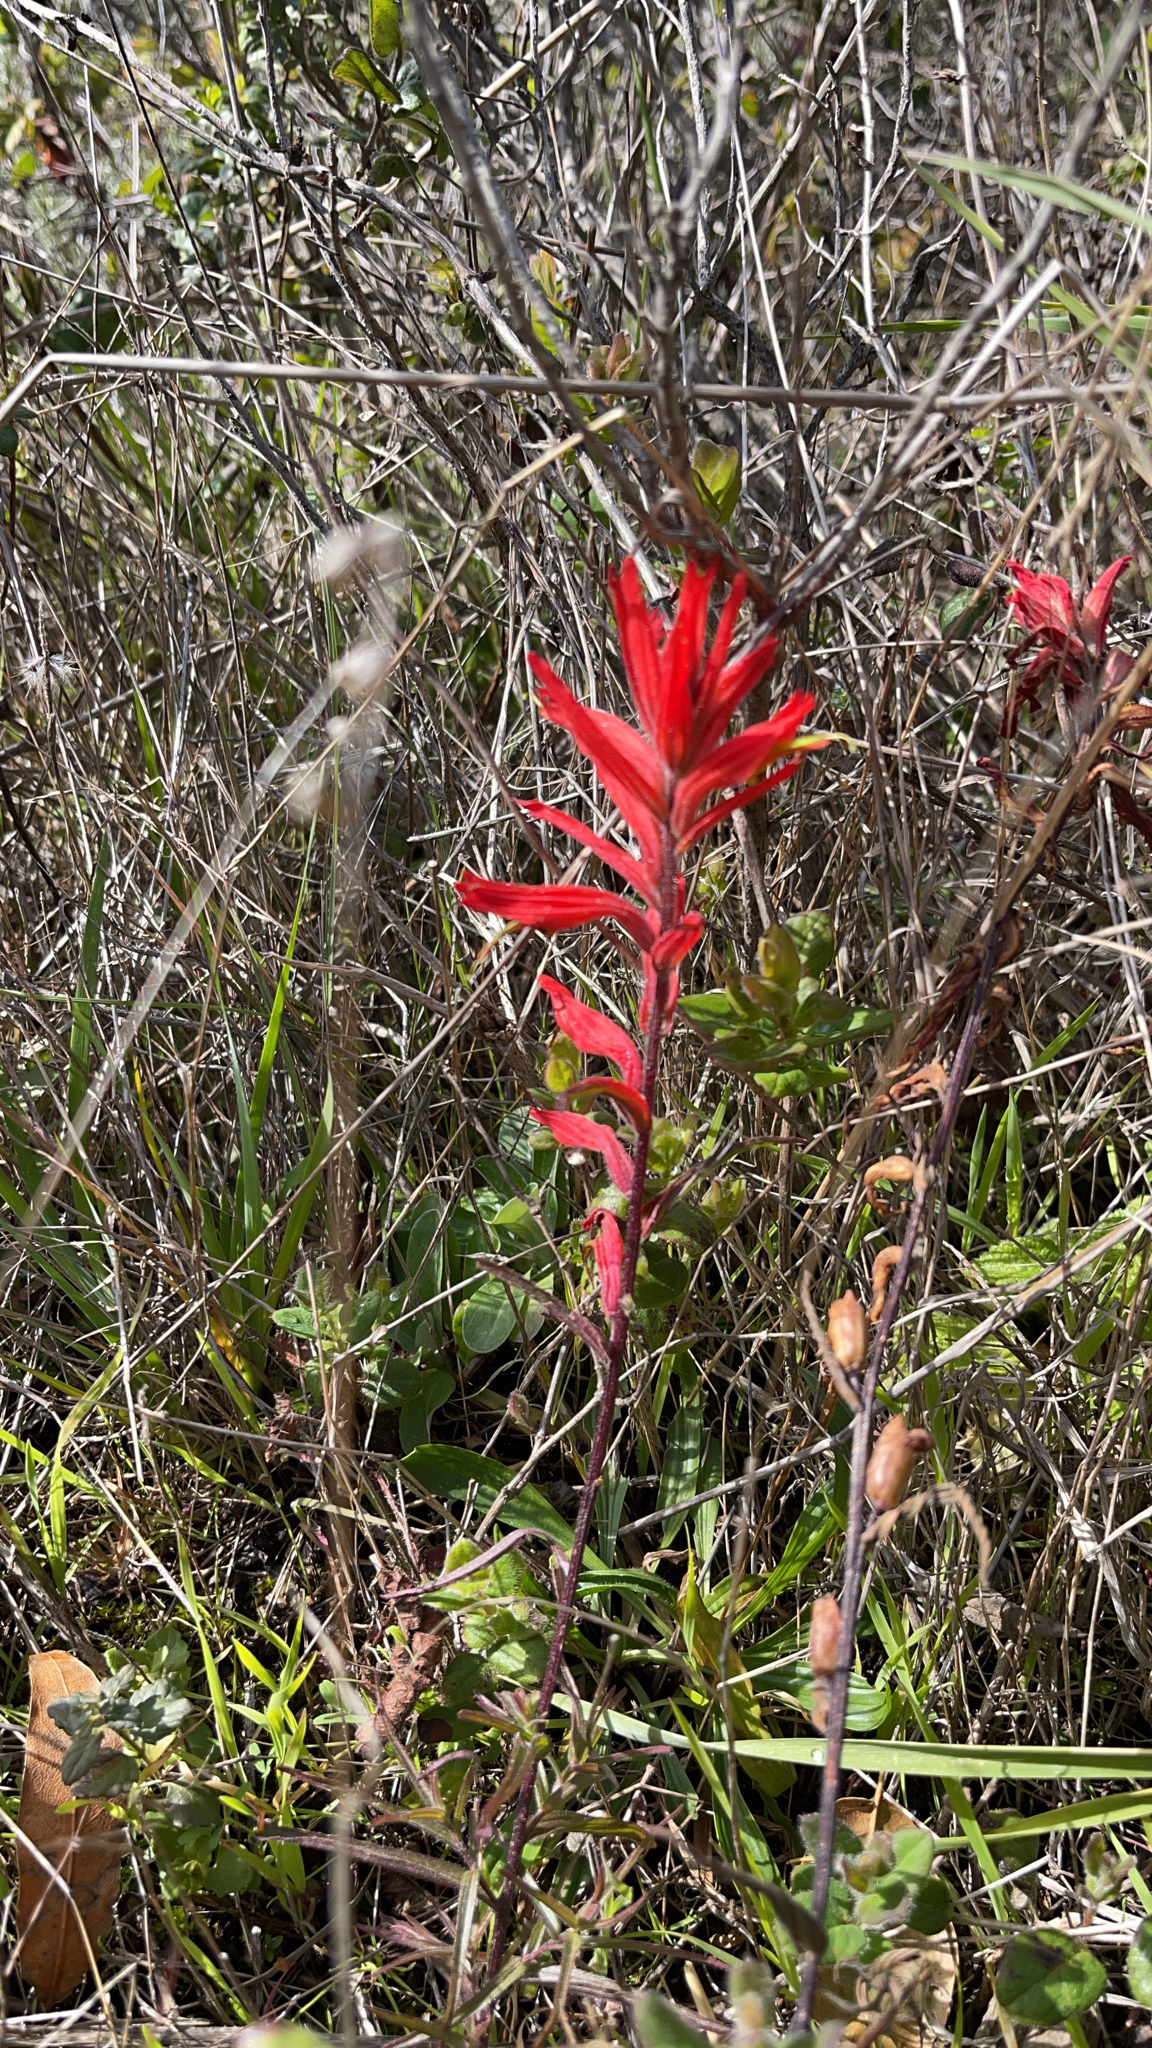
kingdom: Plantae
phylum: Tracheophyta
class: Magnoliopsida
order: Lamiales
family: Orobanchaceae
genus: Castilleja
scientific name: Castilleja subinclusa
